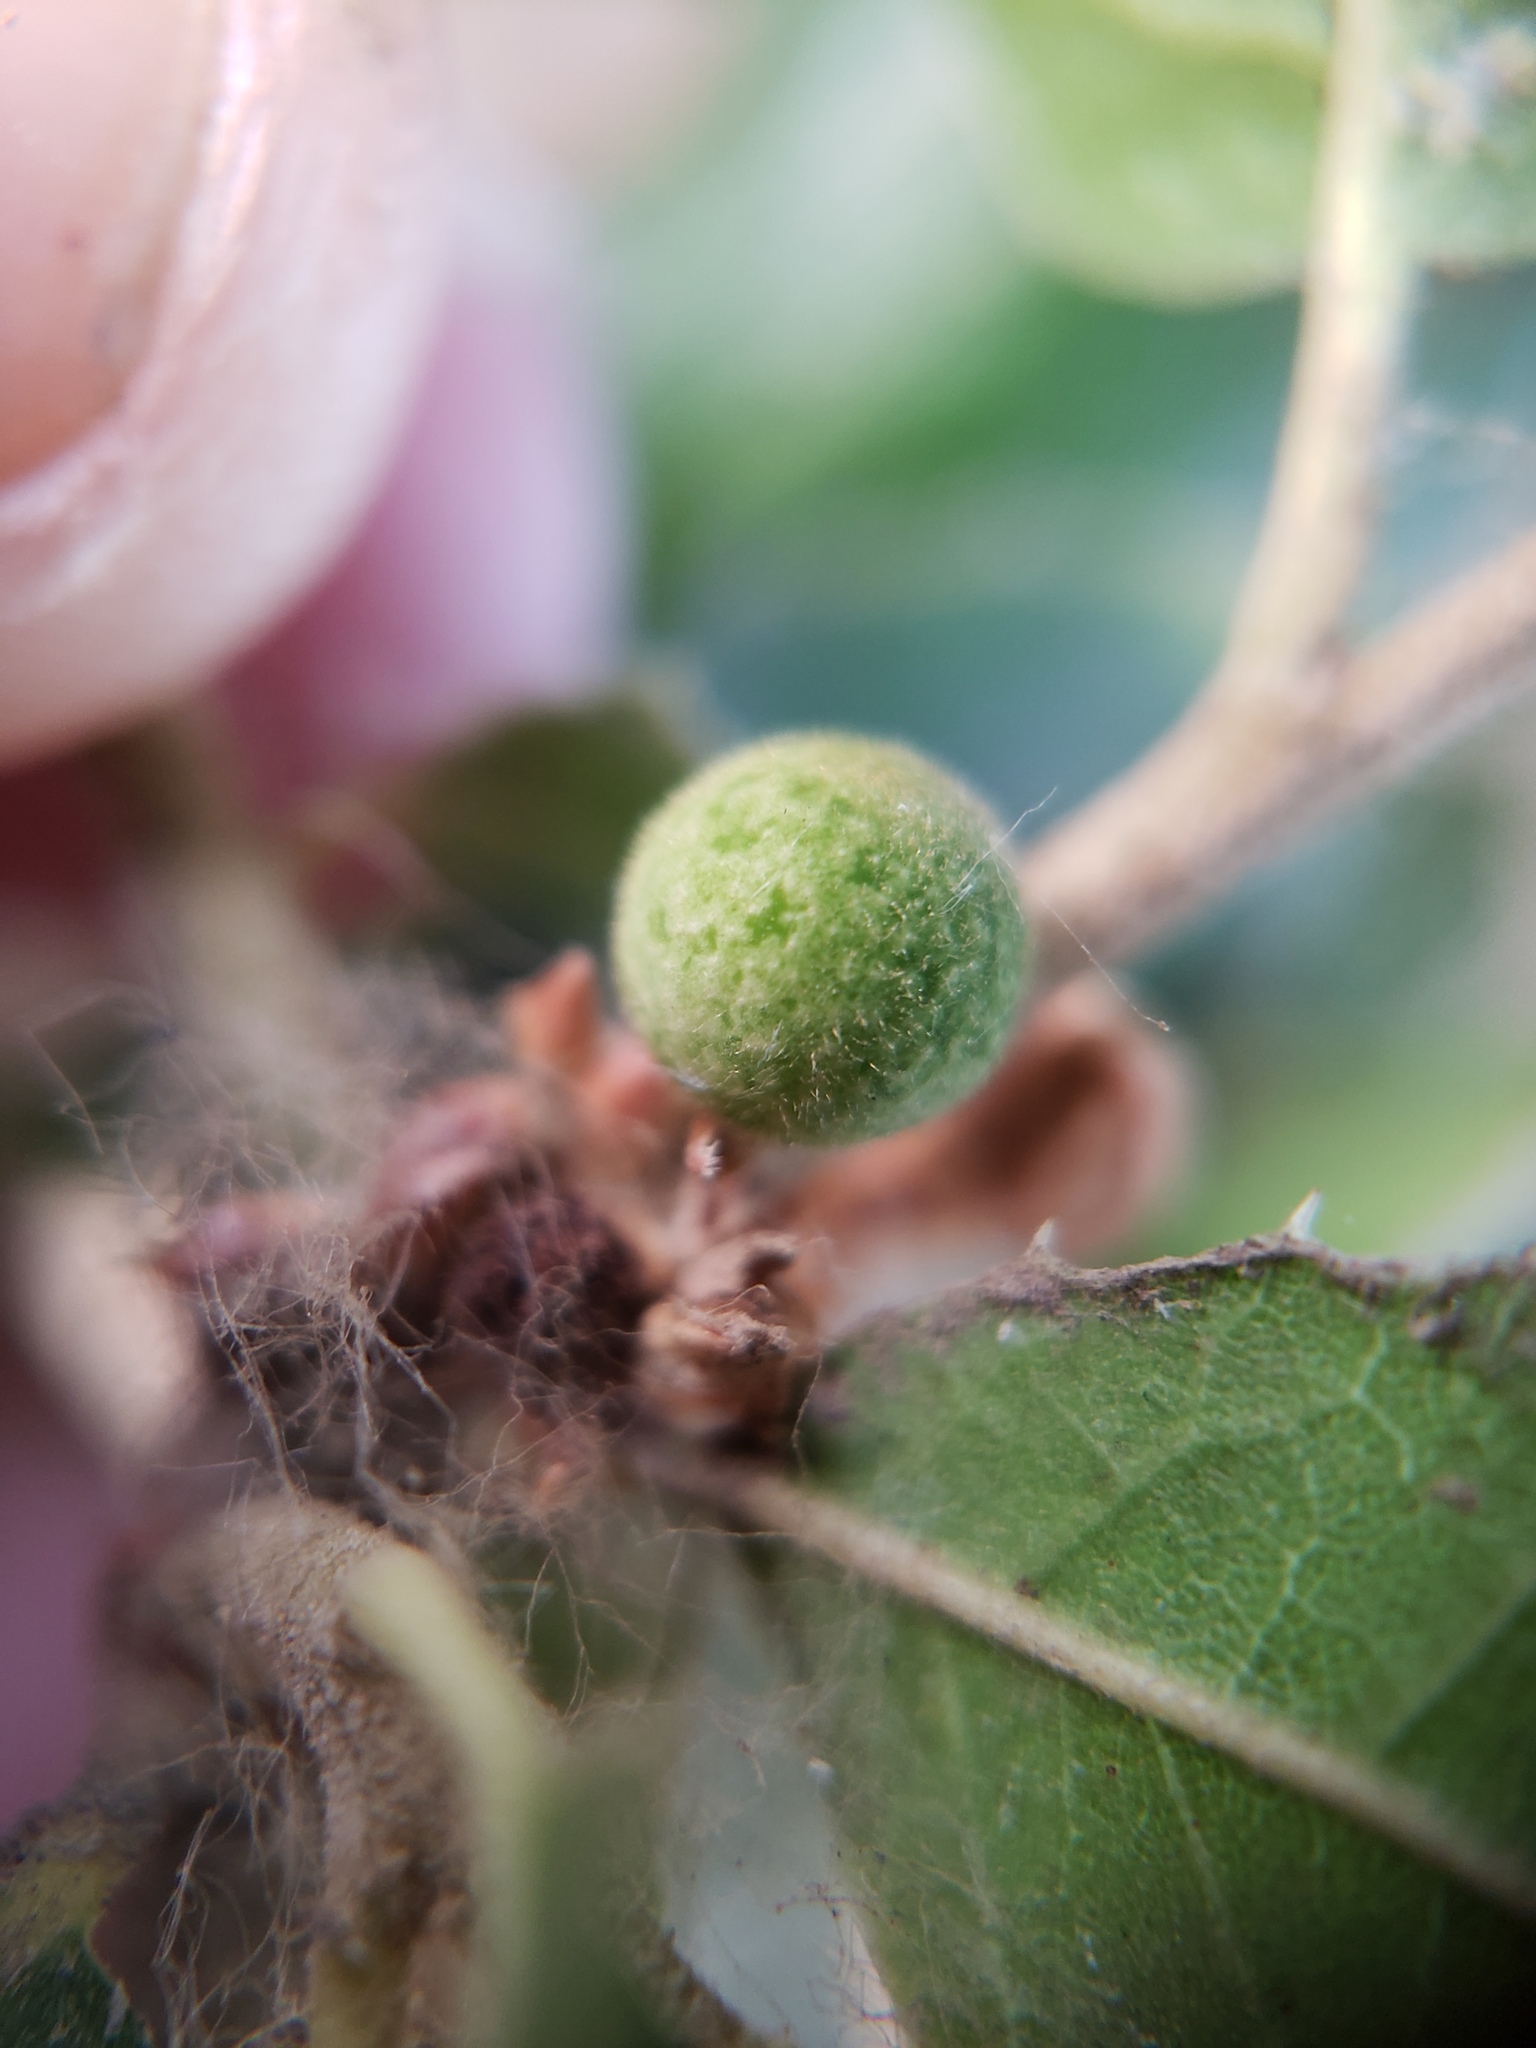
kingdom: Animalia
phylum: Arthropoda
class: Insecta
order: Hymenoptera
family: Cynipidae
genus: Callirhytis
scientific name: Callirhytis
